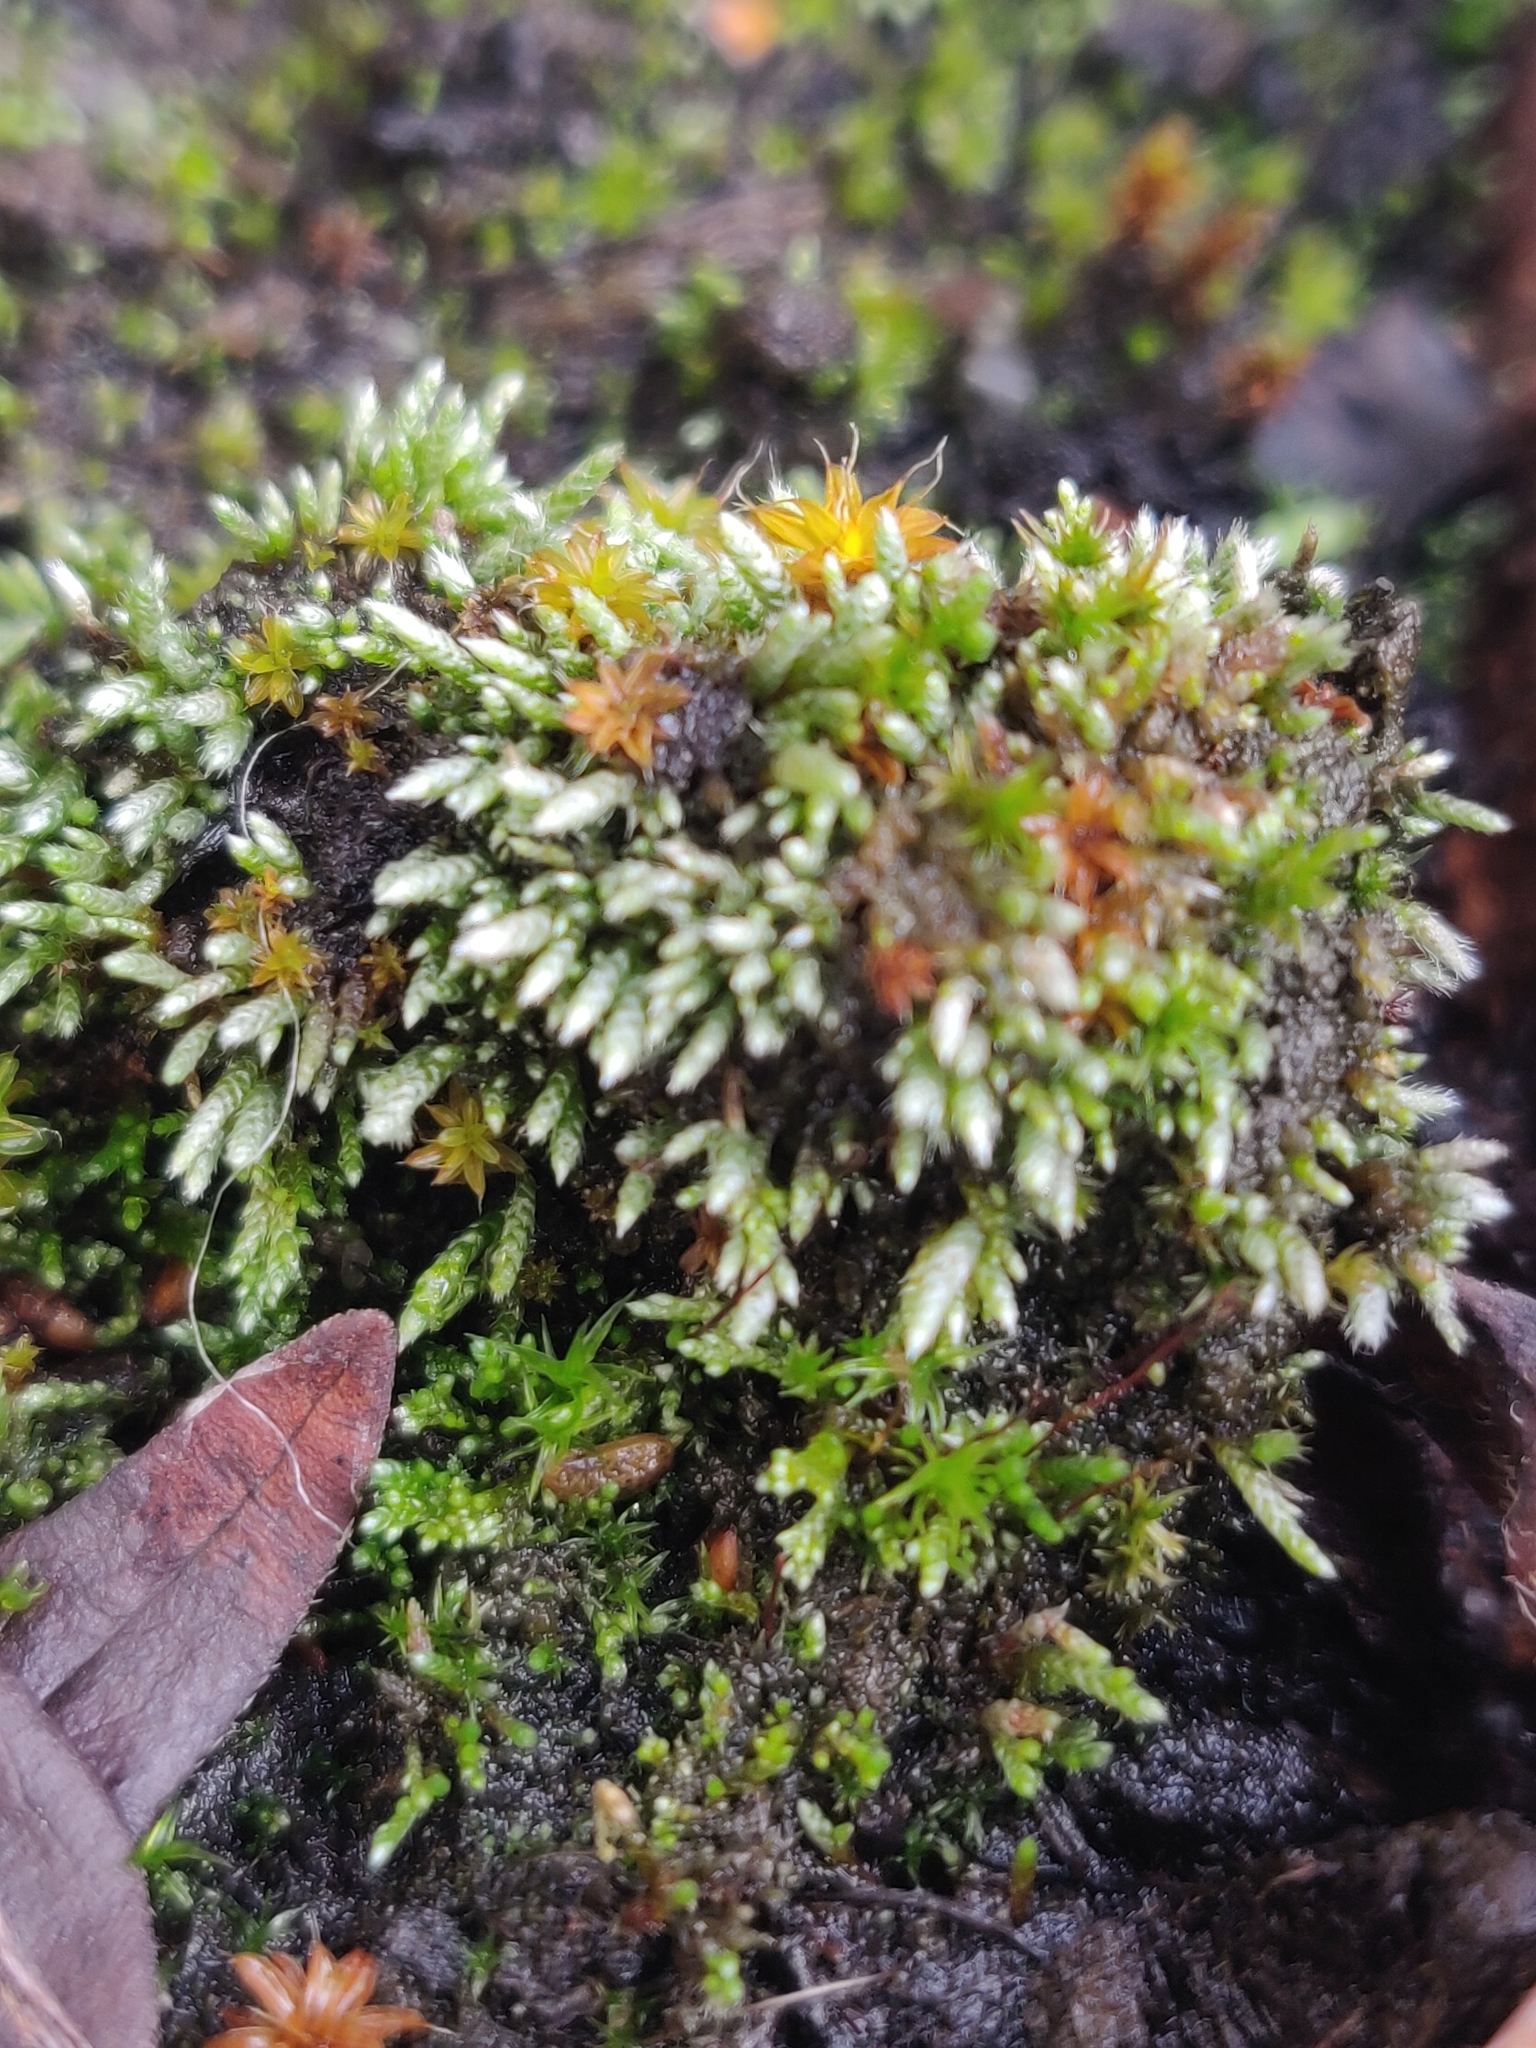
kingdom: Plantae
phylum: Bryophyta
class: Bryopsida
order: Bryales
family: Bryaceae
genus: Bryum
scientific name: Bryum argenteum
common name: Silver-moss
